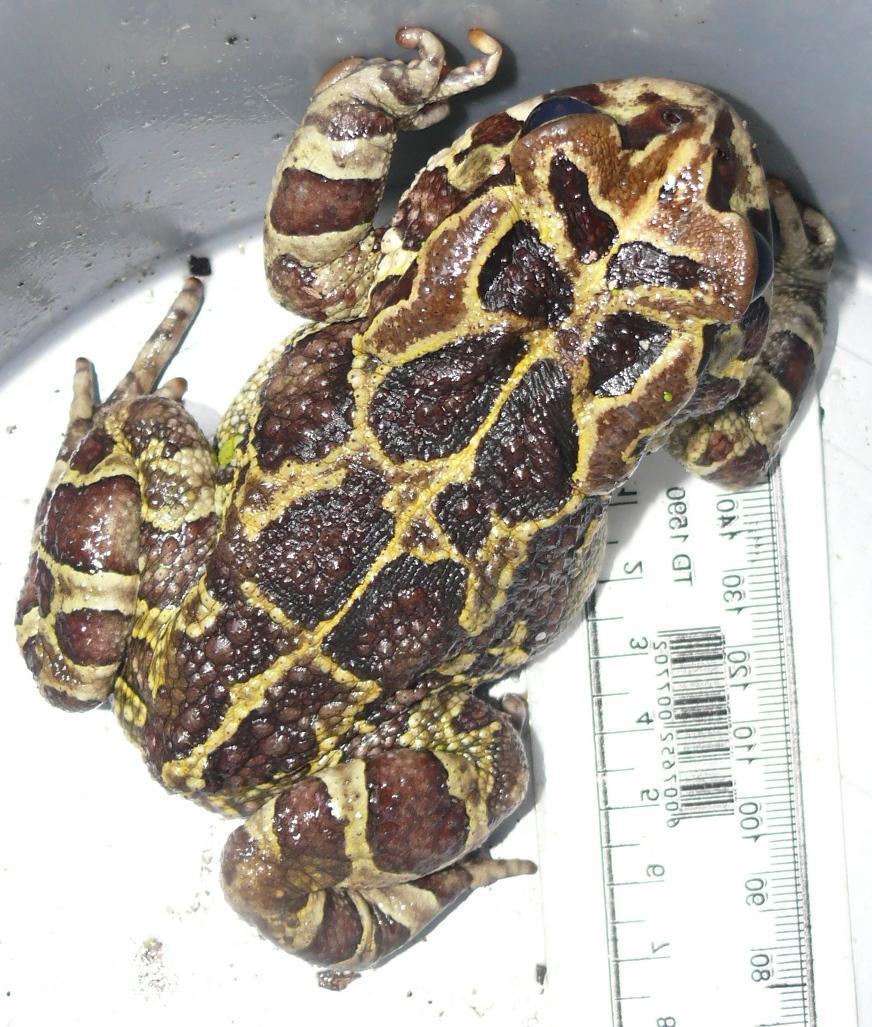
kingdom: Animalia
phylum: Chordata
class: Amphibia
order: Anura
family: Bufonidae
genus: Sclerophrys
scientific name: Sclerophrys pantherina
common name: Panther toad
